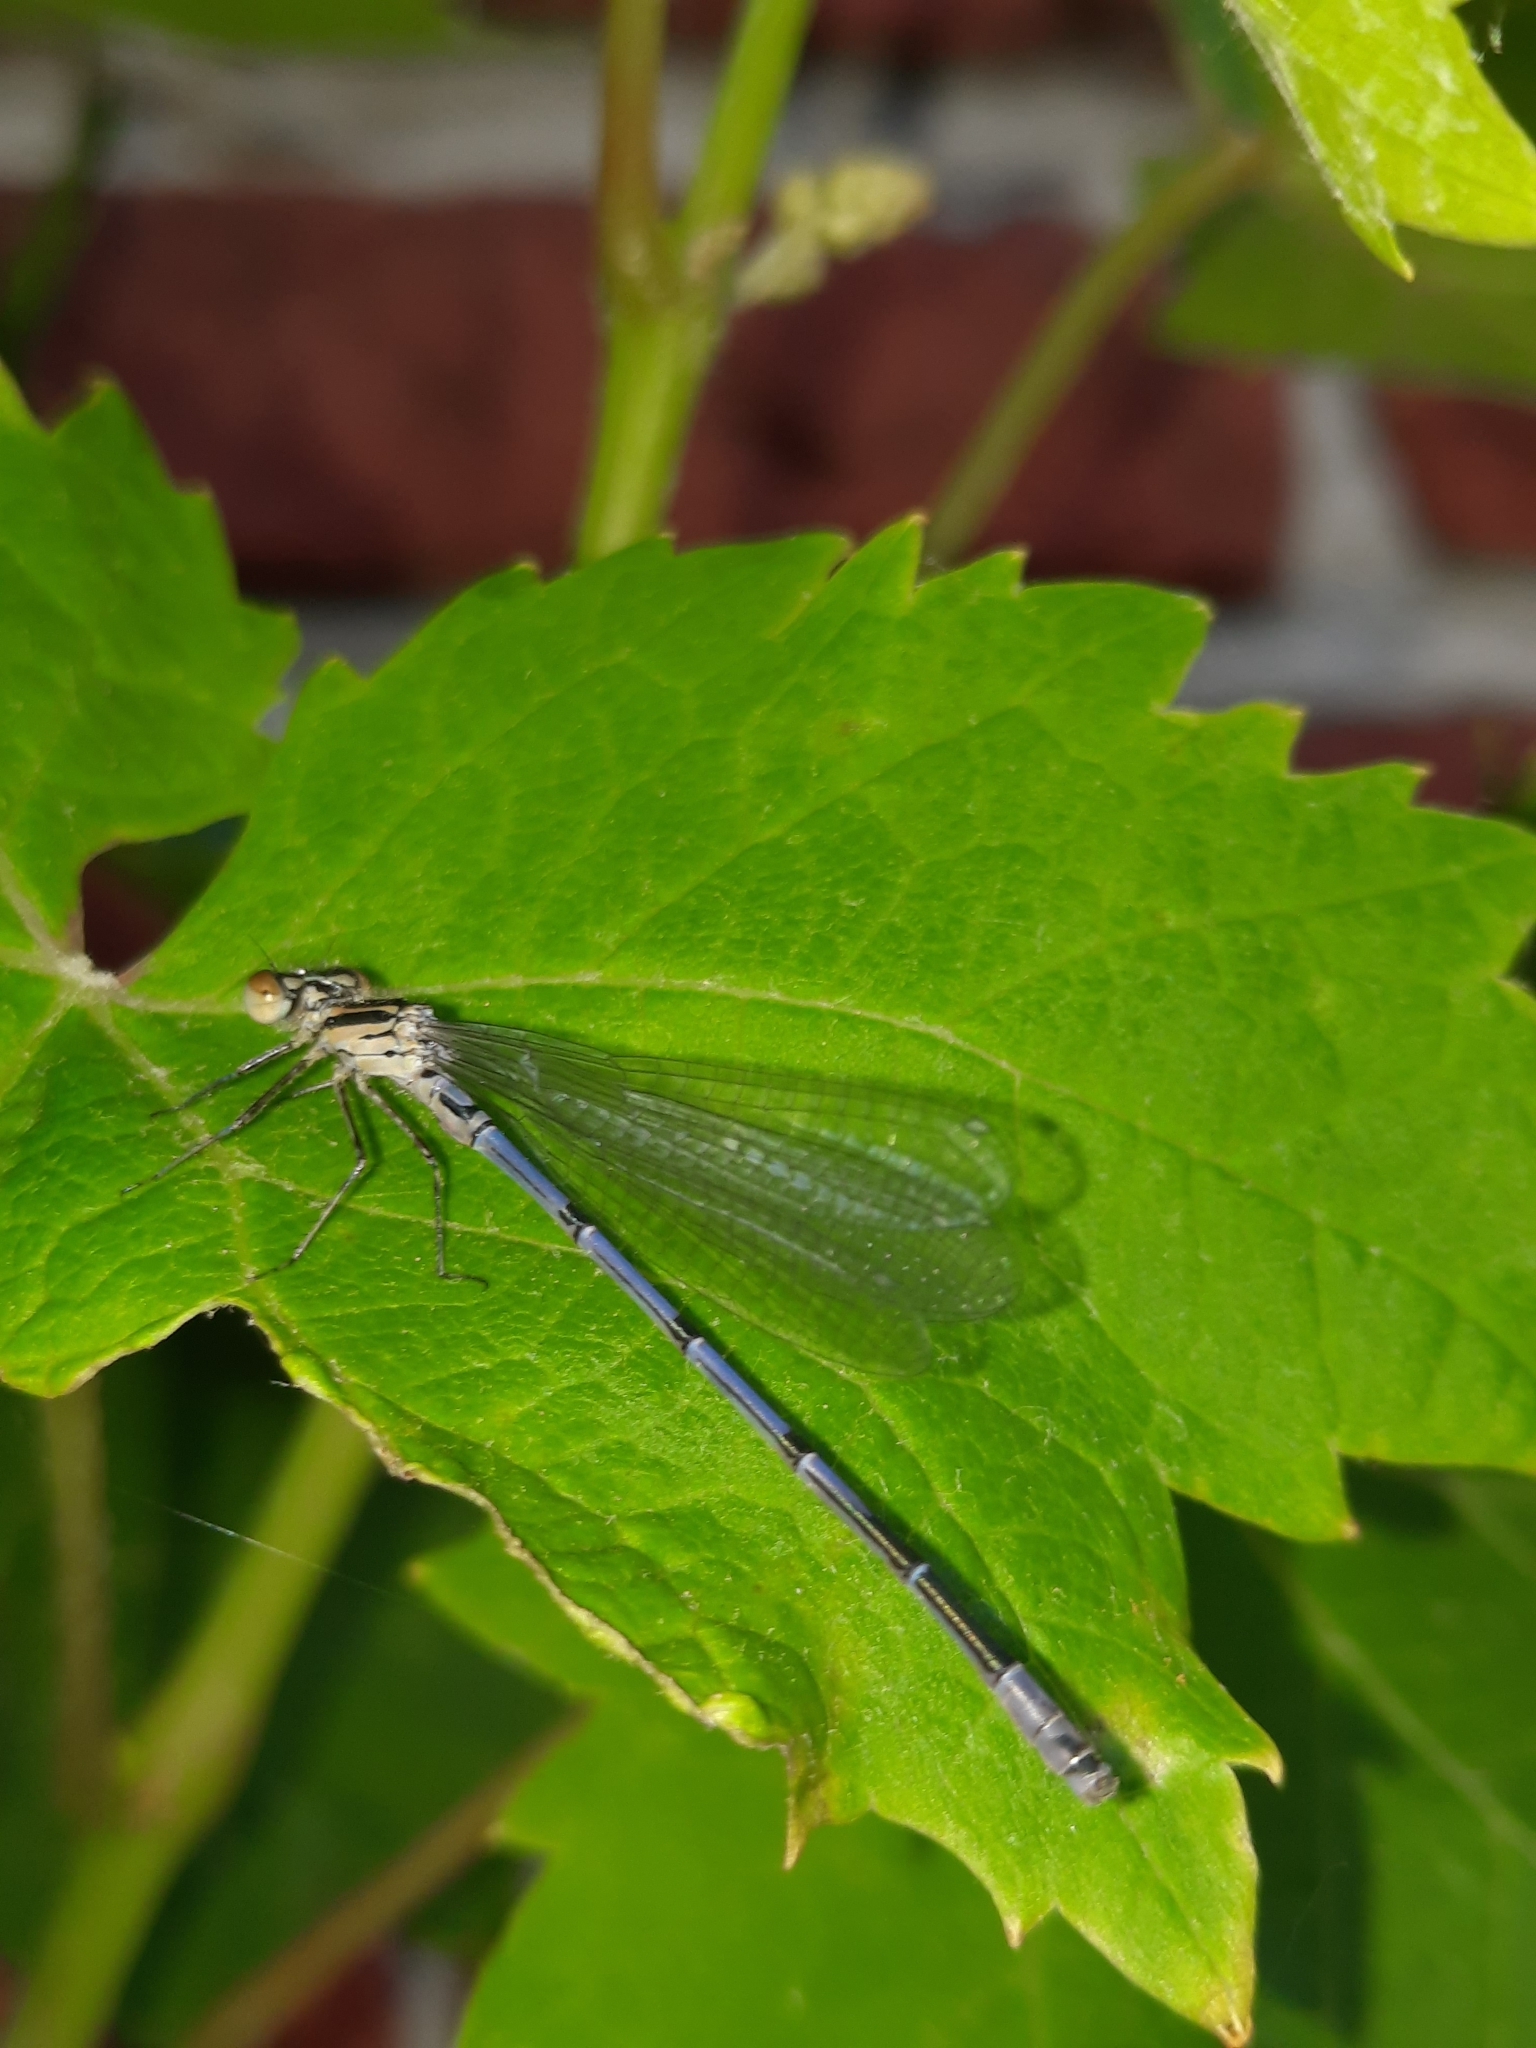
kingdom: Animalia
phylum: Arthropoda
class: Insecta
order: Odonata
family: Coenagrionidae
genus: Coenagrion
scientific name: Coenagrion puella
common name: Azure damselfly
